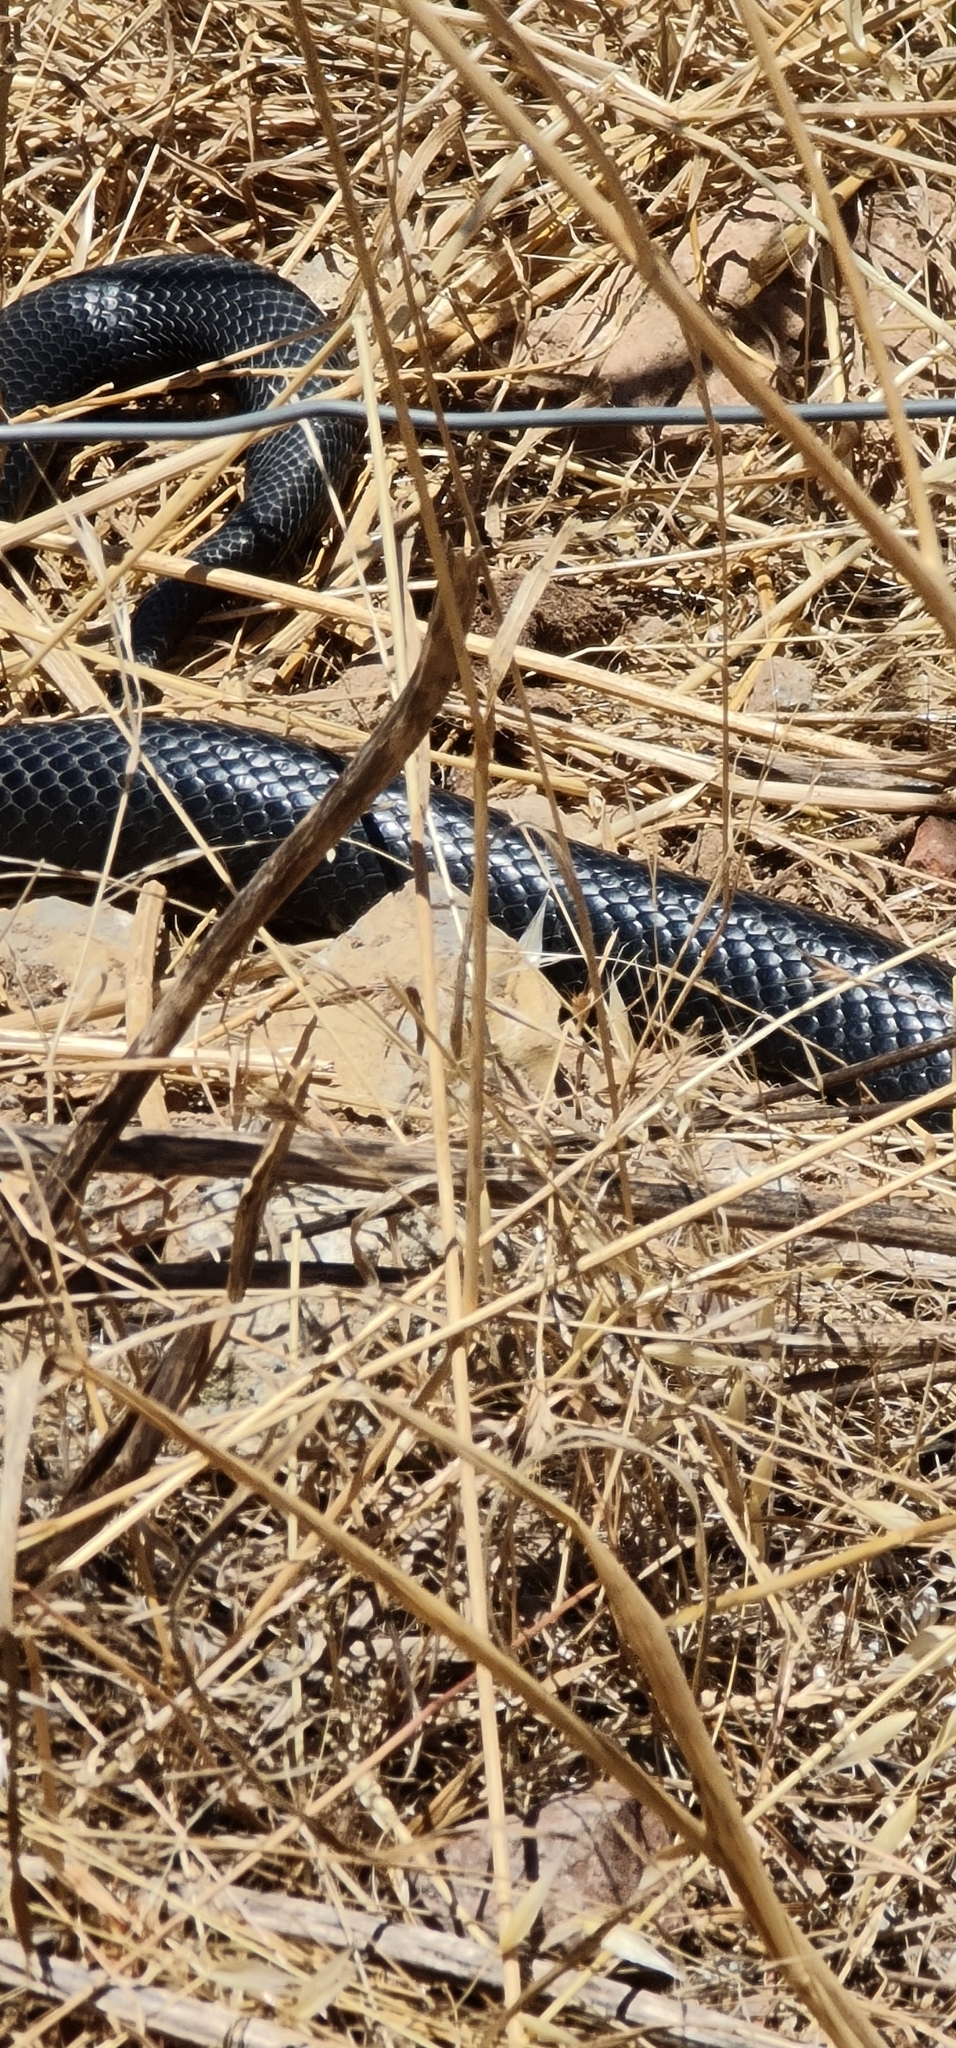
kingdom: Animalia
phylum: Chordata
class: Squamata
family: Elapidae
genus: Pseudechis
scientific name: Pseudechis porphyriacus
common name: Australian black snake
